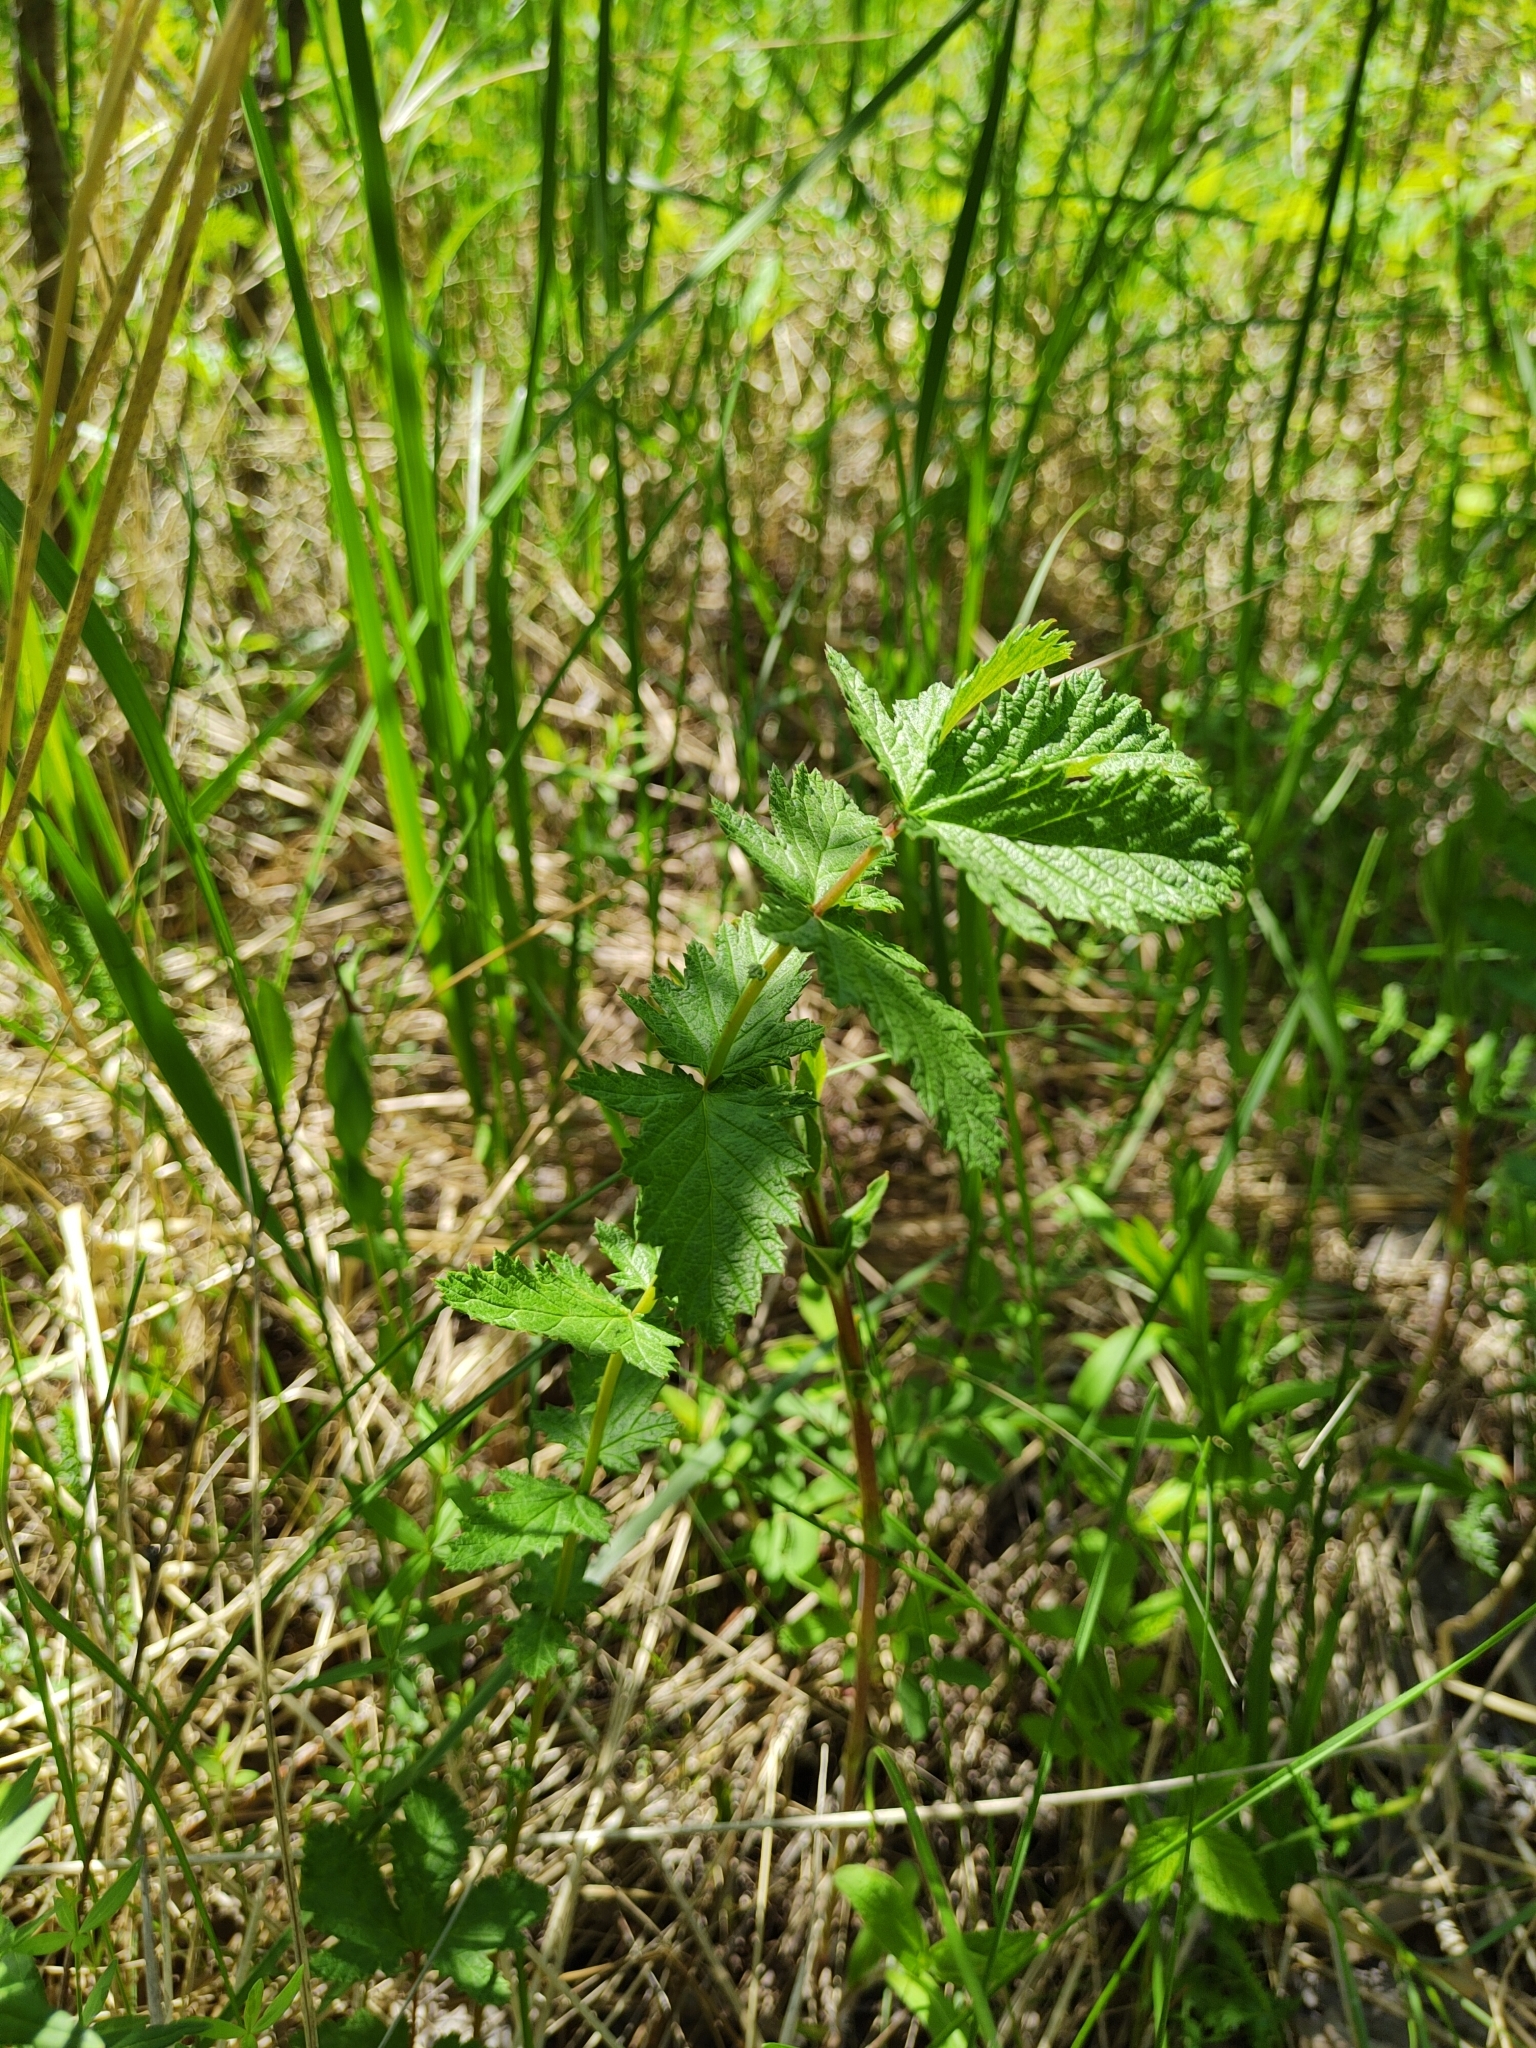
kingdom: Plantae
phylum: Tracheophyta
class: Magnoliopsida
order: Rosales
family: Rosaceae
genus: Filipendula
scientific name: Filipendula ulmaria
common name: Meadowsweet
